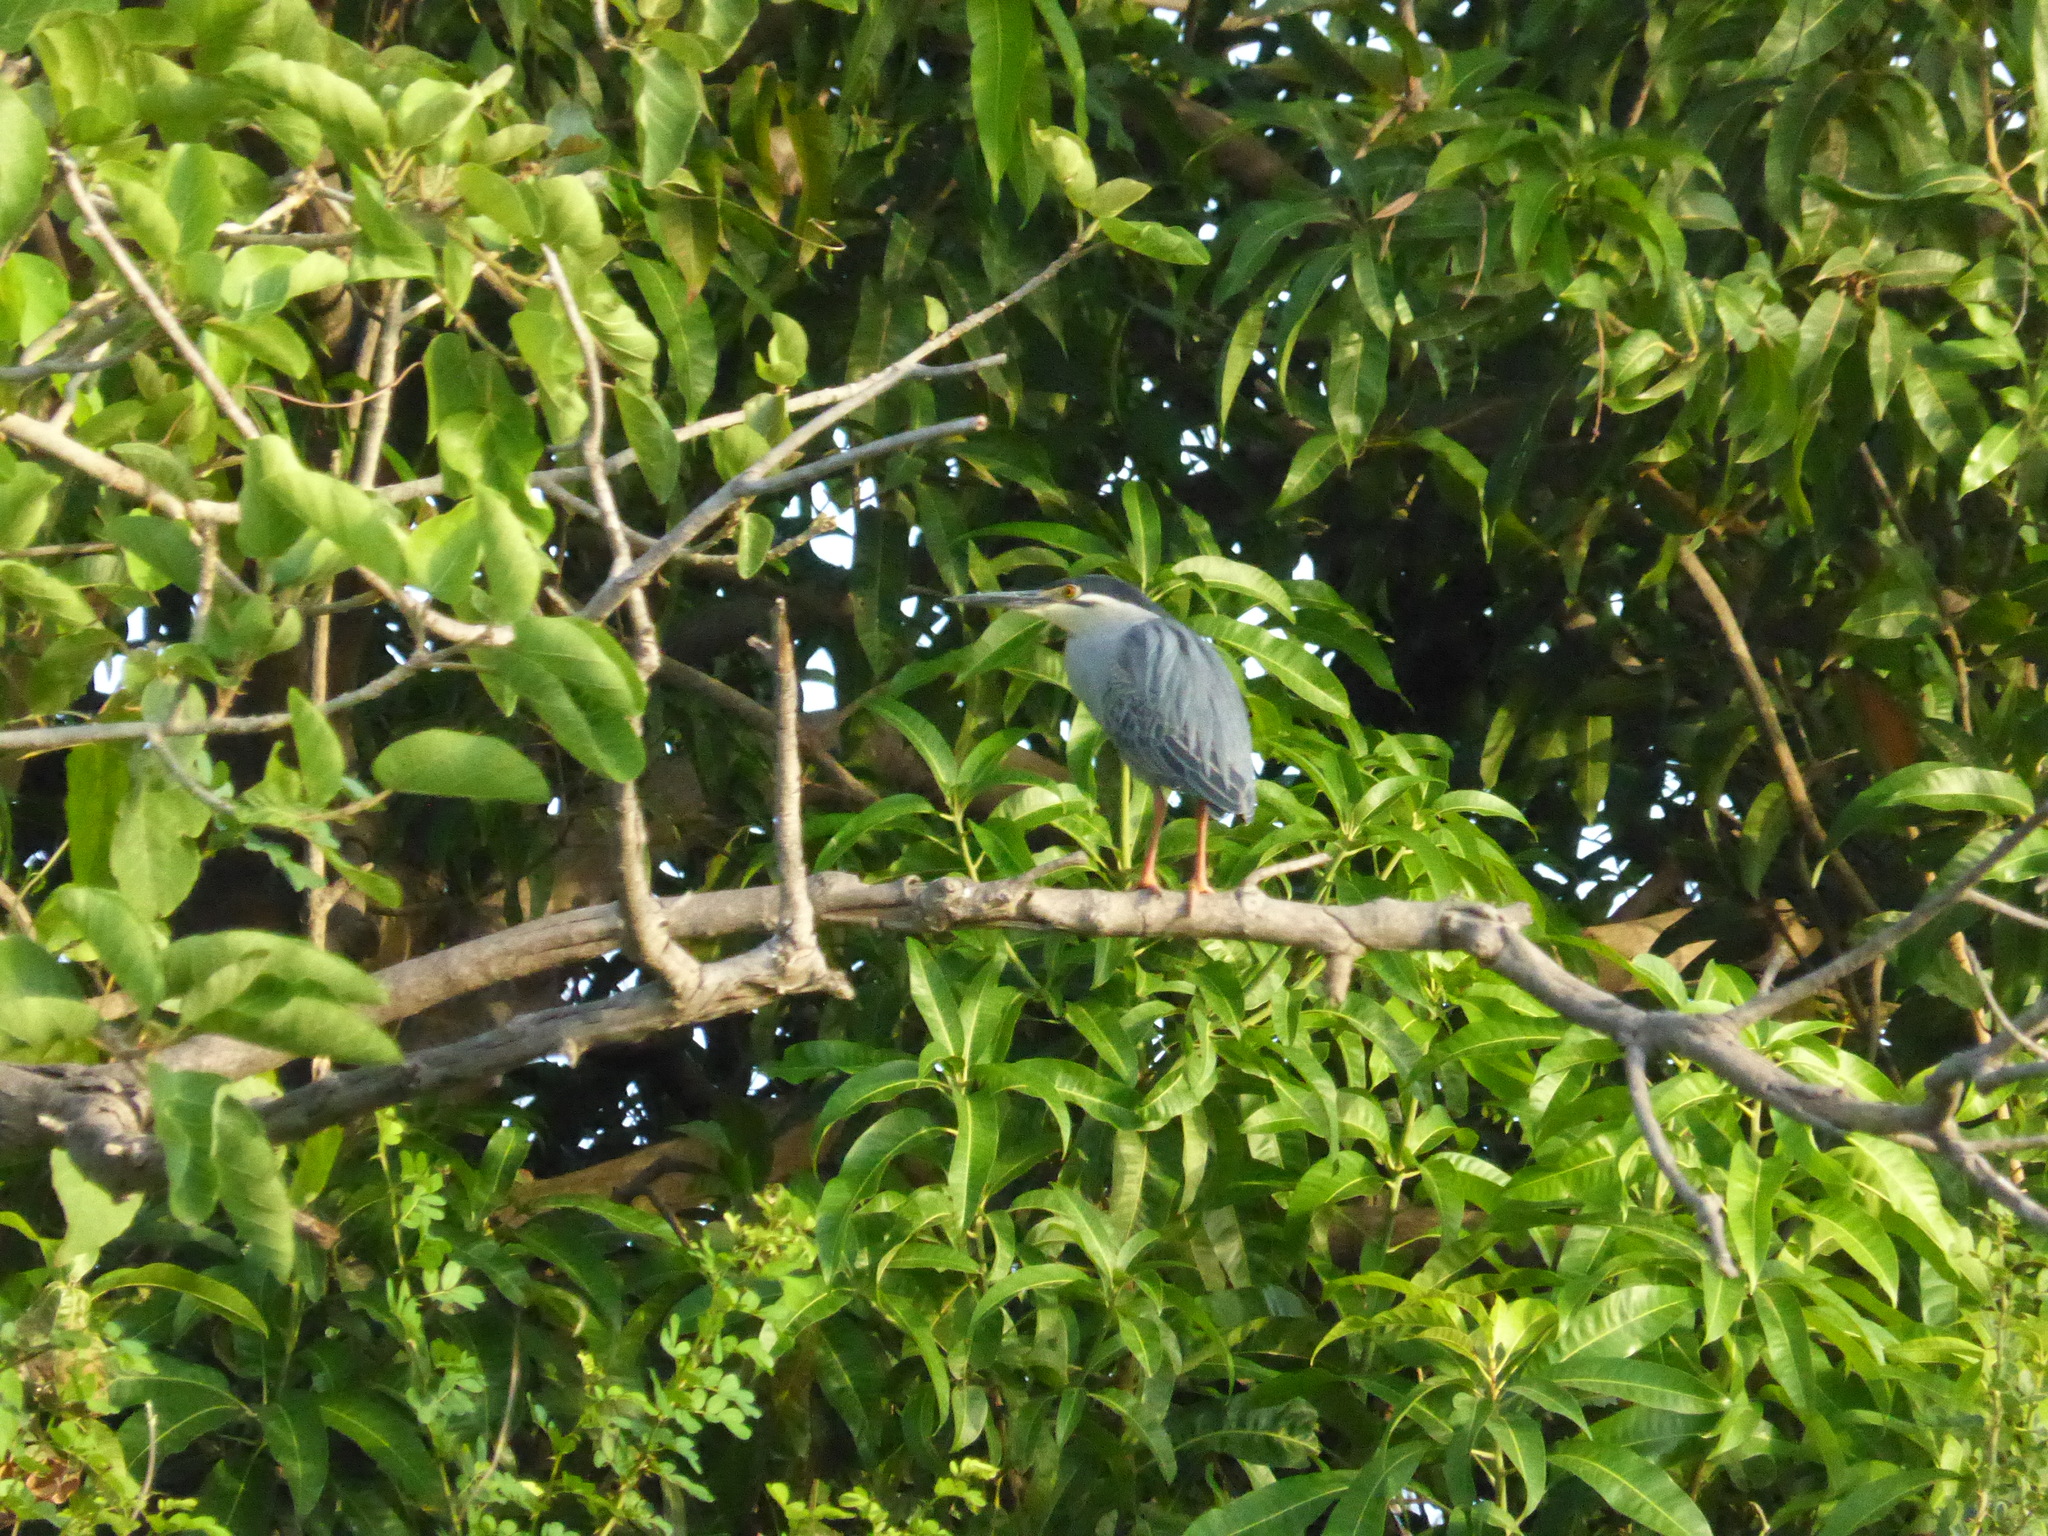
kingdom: Animalia
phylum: Chordata
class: Aves
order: Pelecaniformes
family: Ardeidae
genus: Butorides
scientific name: Butorides striata
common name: Striated heron
